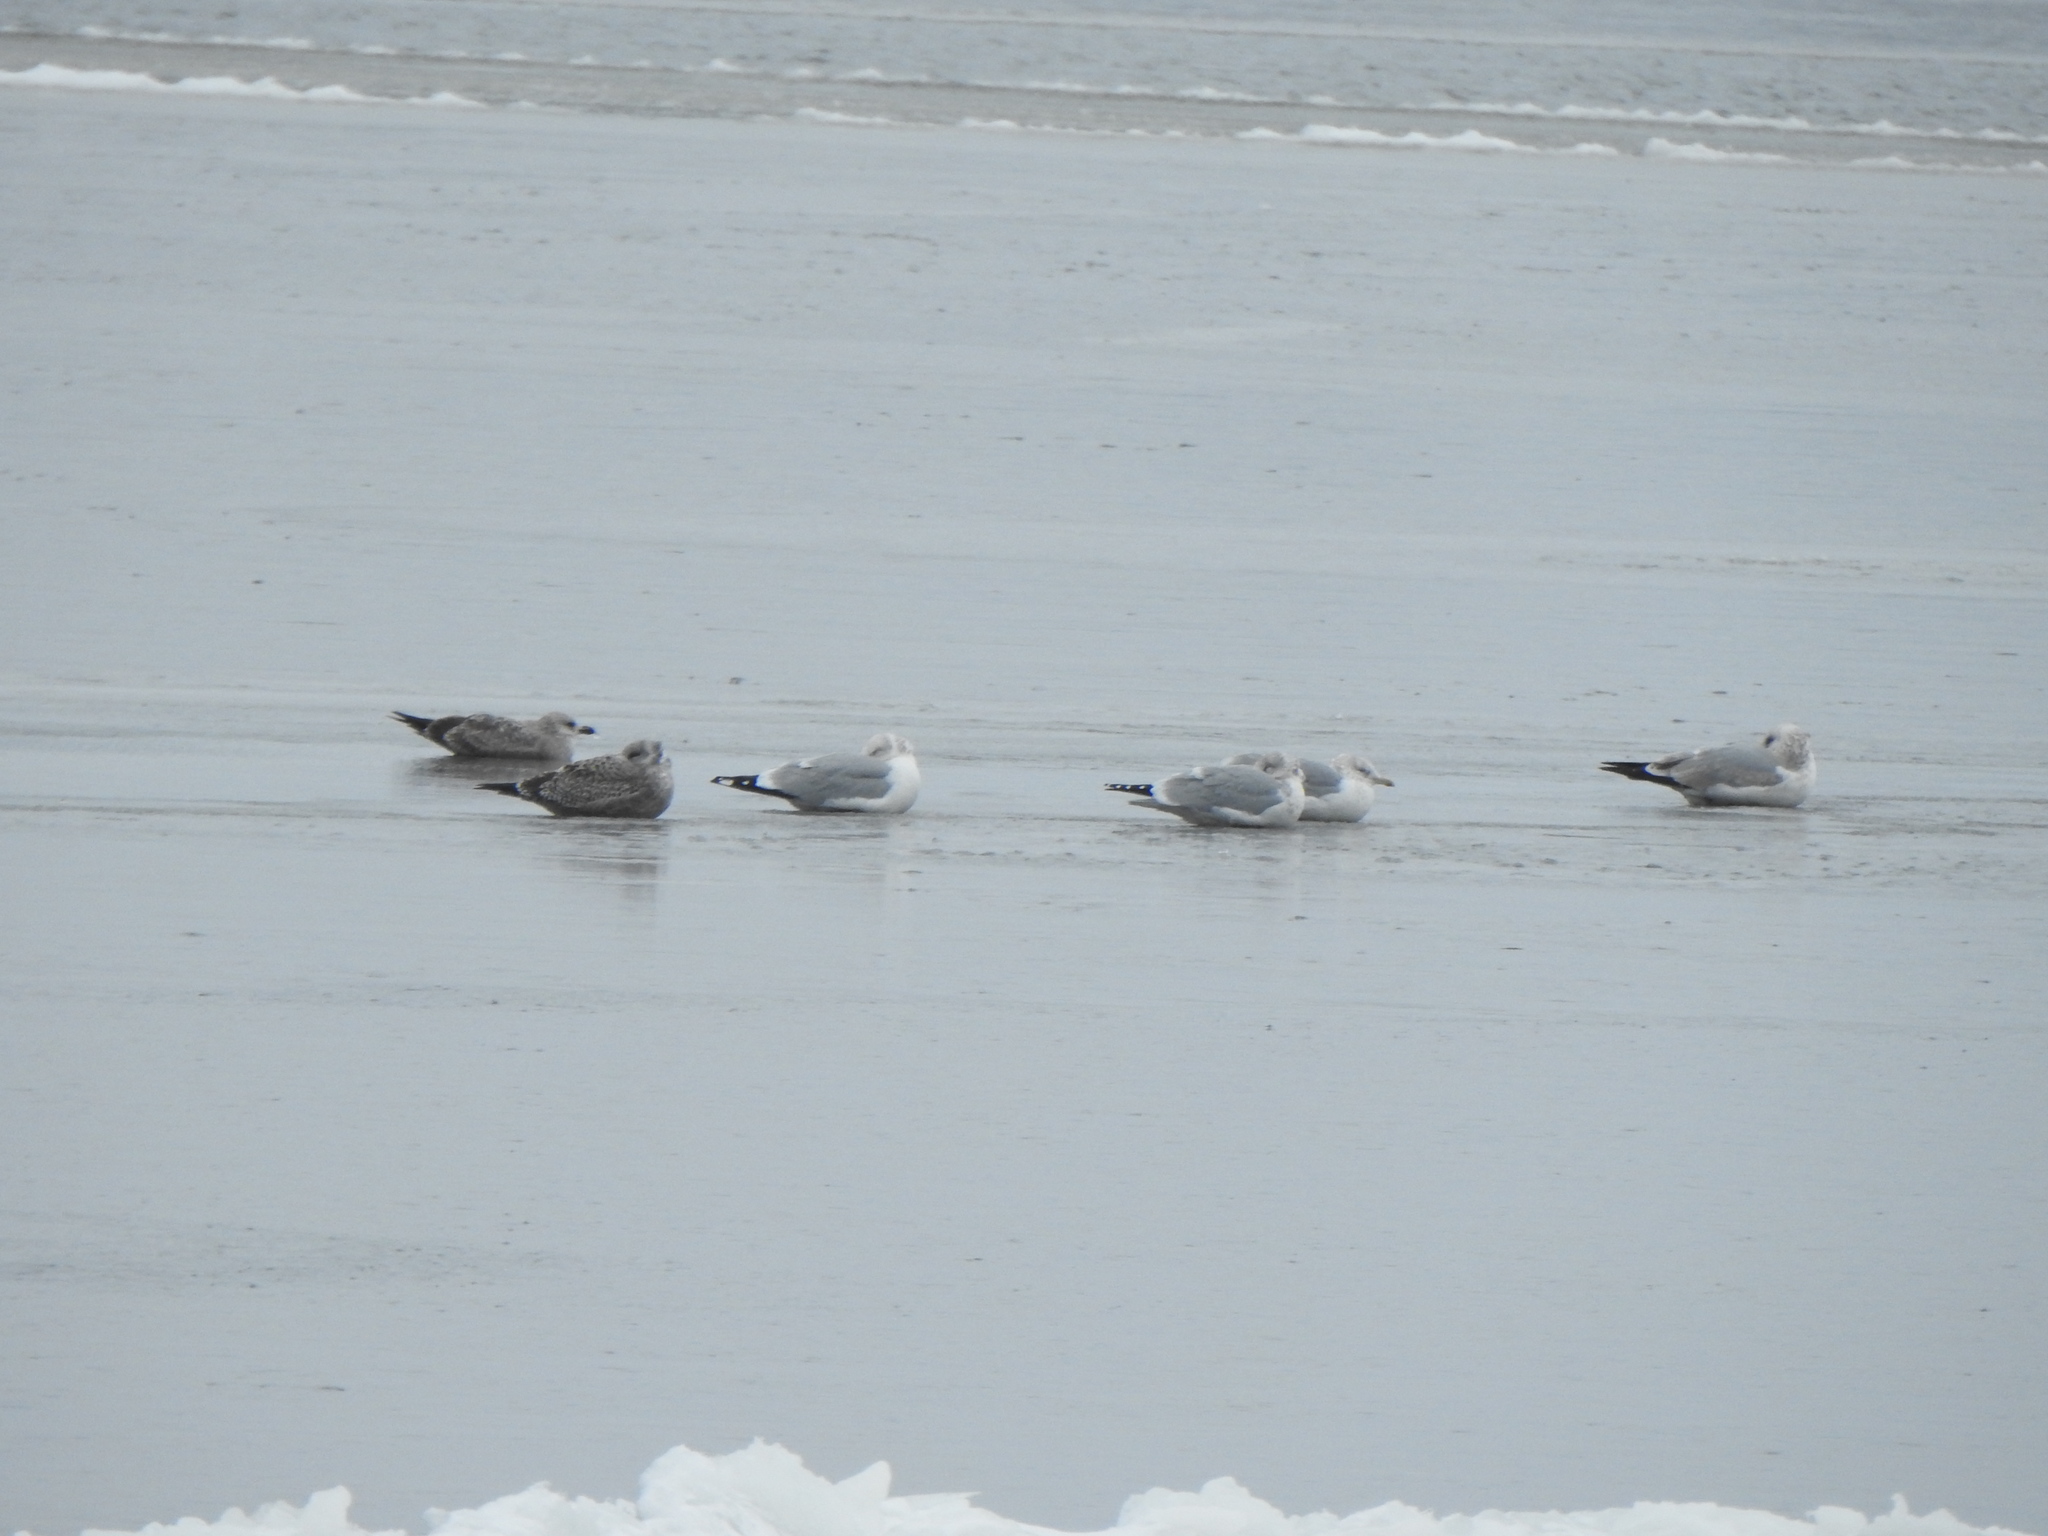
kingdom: Animalia
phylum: Chordata
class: Aves
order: Charadriiformes
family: Laridae
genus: Larus
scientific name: Larus argentatus
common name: Herring gull
